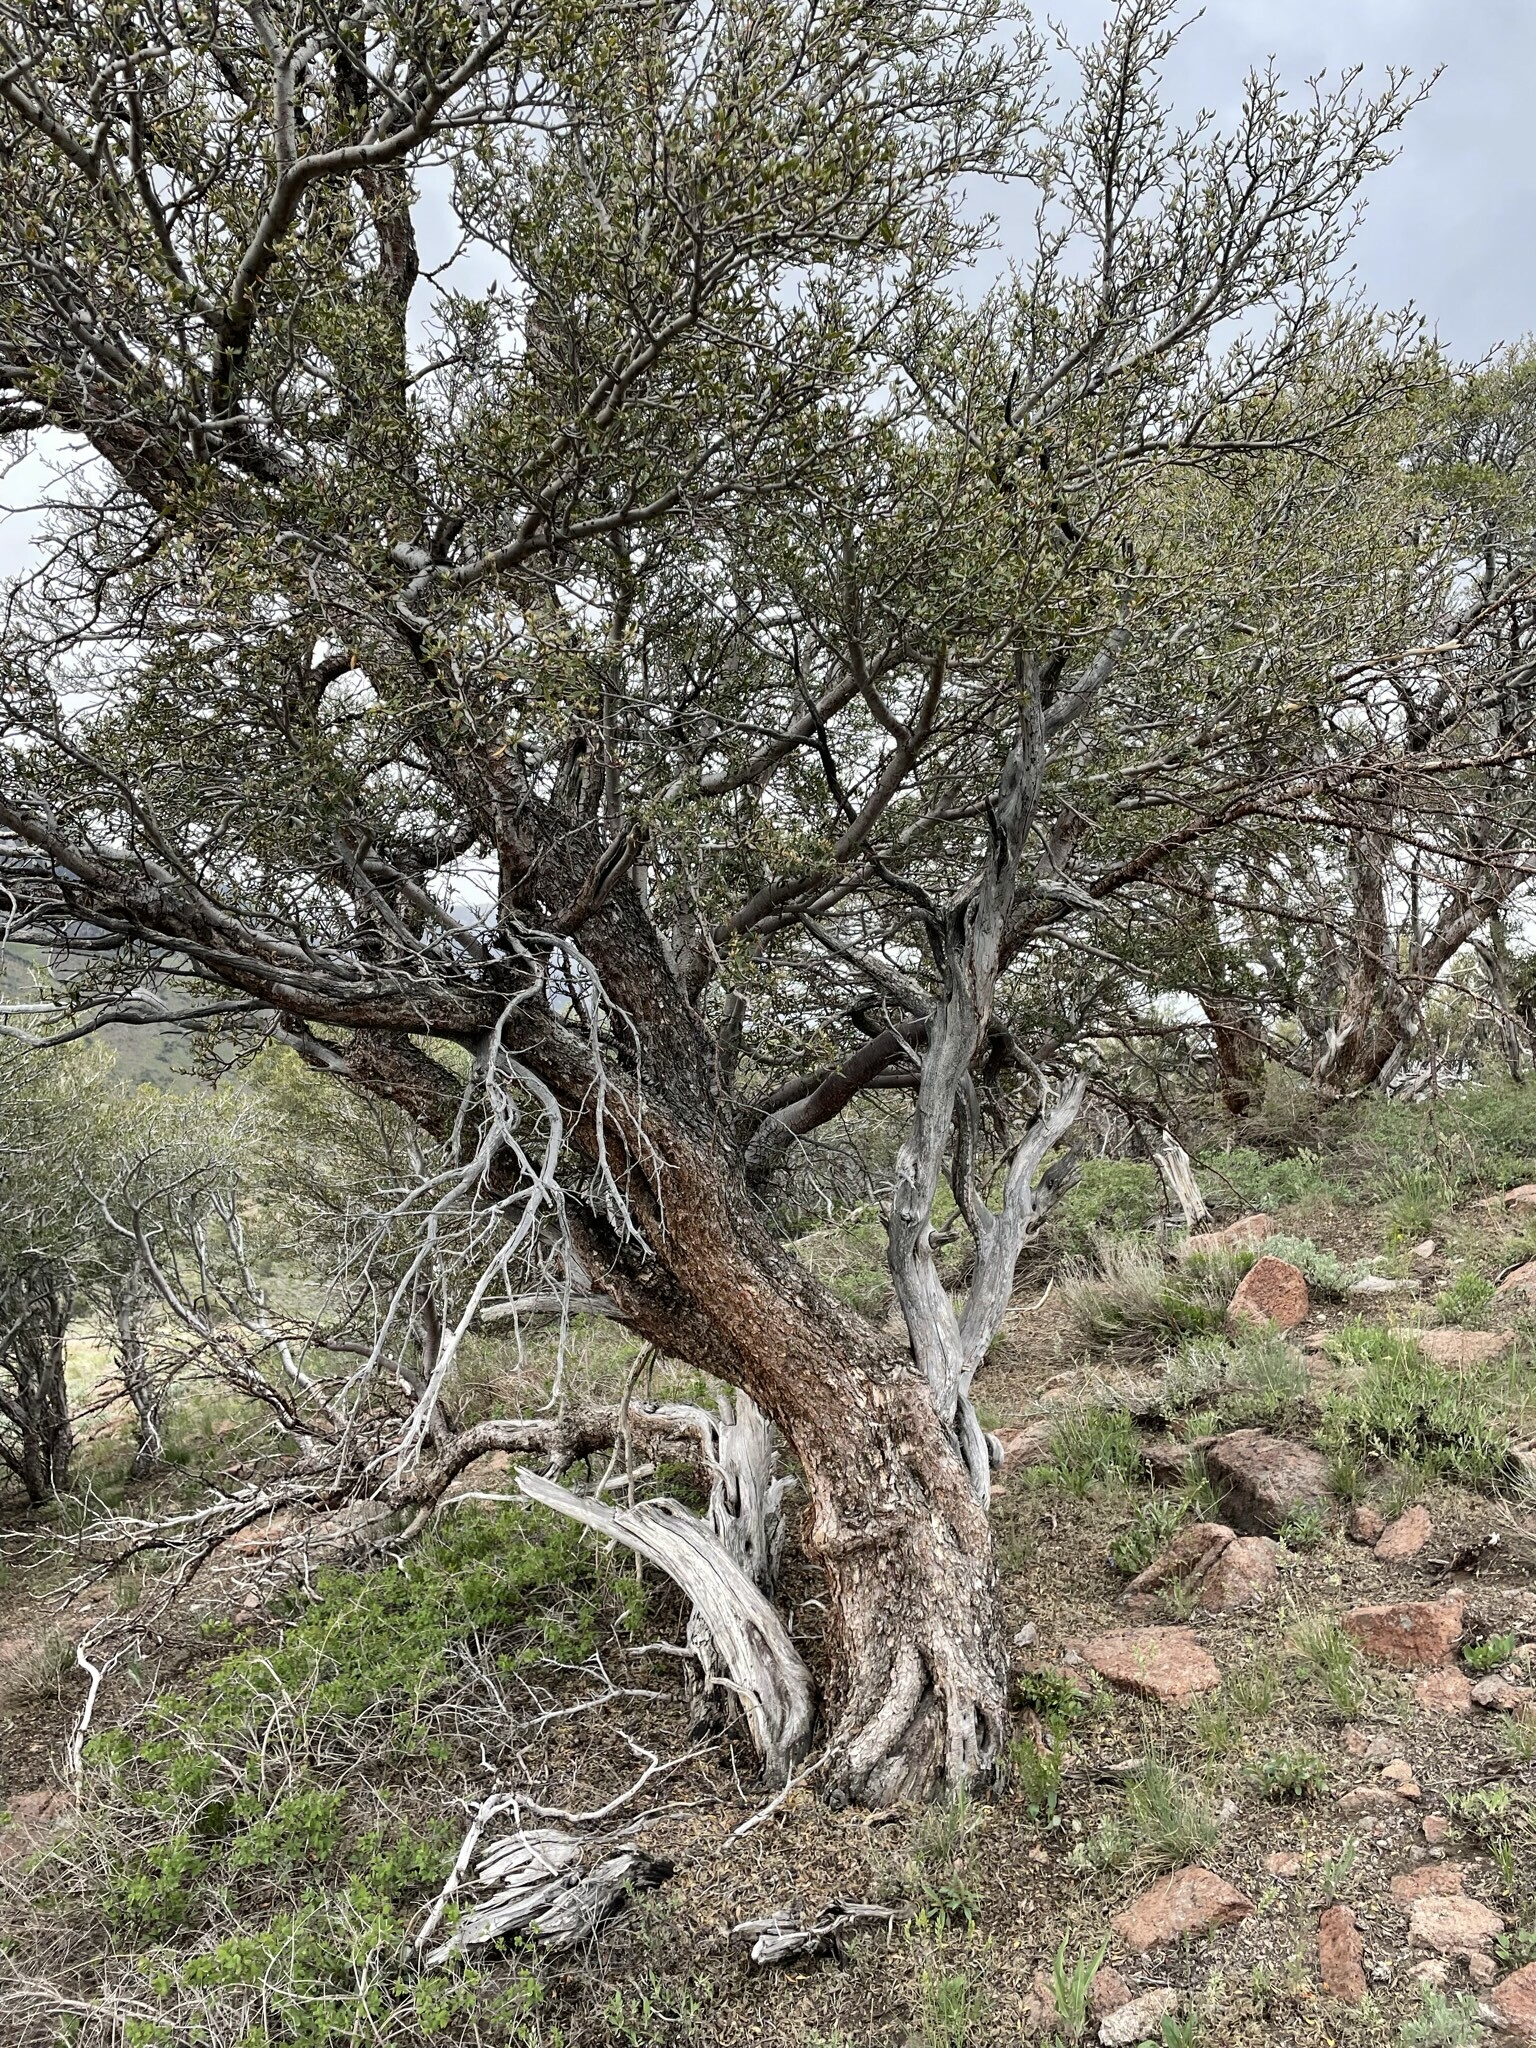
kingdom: Plantae
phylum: Tracheophyta
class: Magnoliopsida
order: Rosales
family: Rosaceae
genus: Cercocarpus
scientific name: Cercocarpus ledifolius
